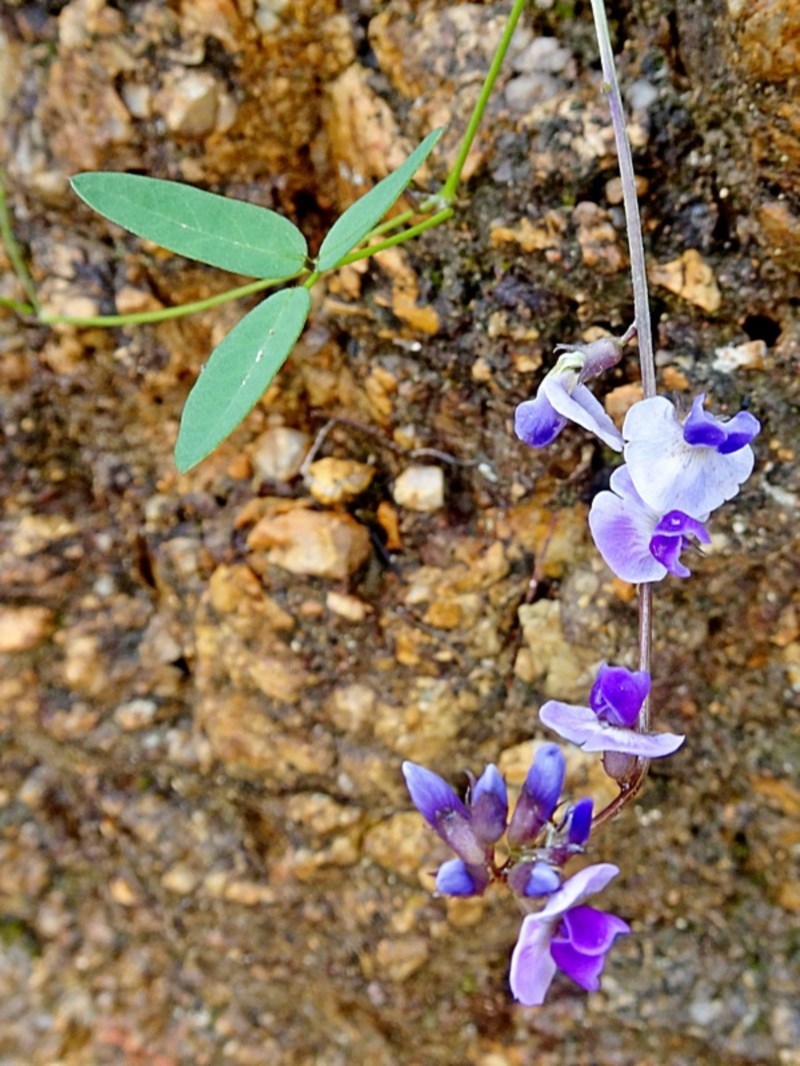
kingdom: Plantae
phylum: Tracheophyta
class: Magnoliopsida
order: Fabales
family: Fabaceae
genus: Glycine
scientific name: Glycine clandestina
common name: Twining glycine
